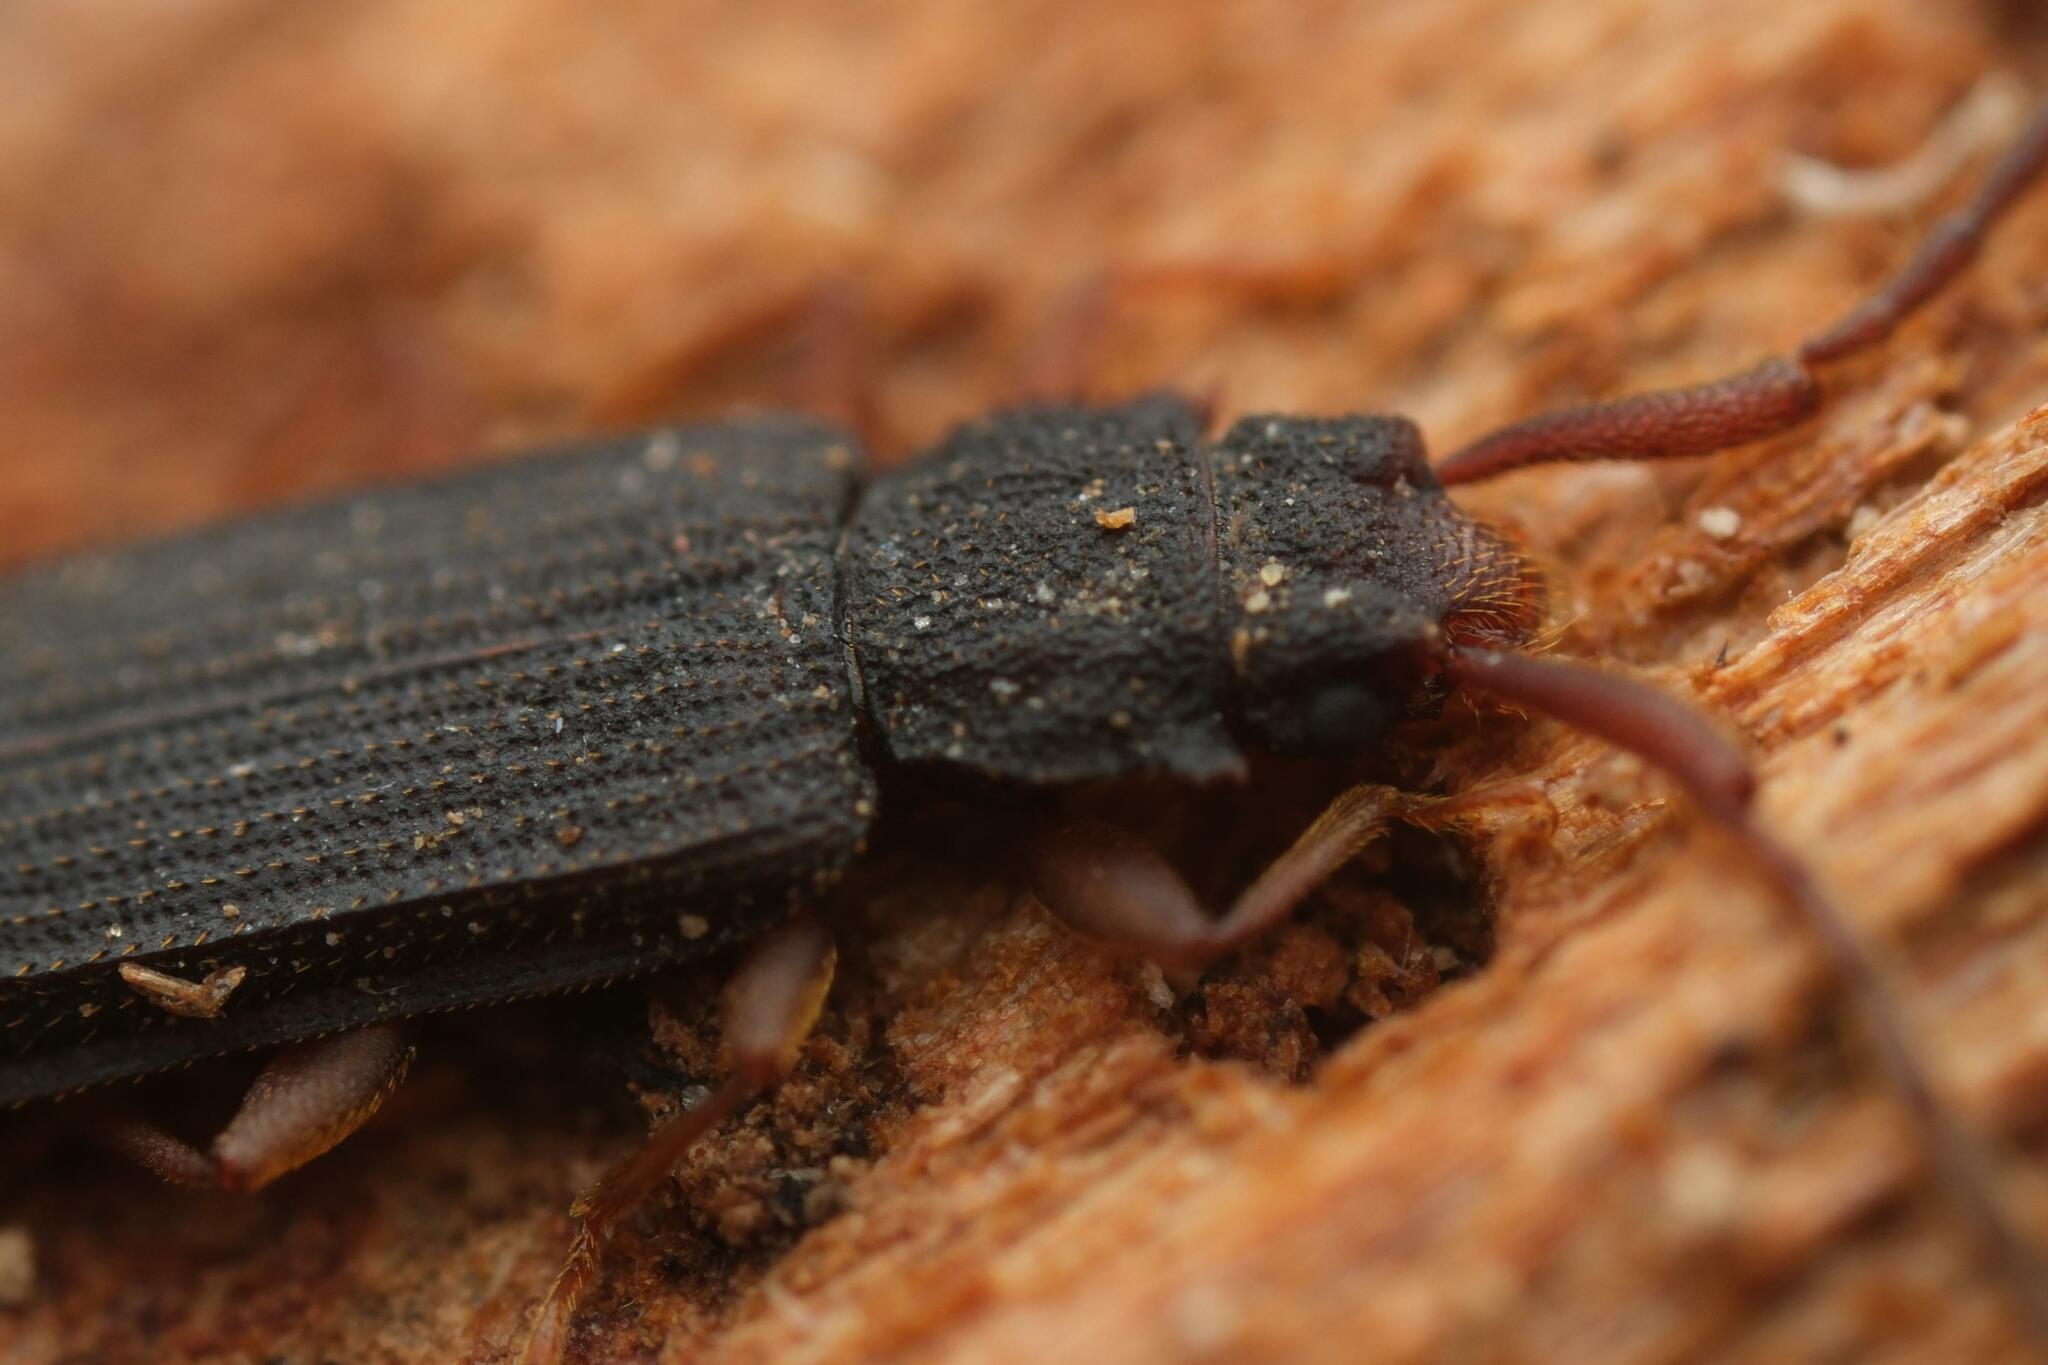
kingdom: Animalia
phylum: Arthropoda
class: Insecta
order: Coleoptera
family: Silvanidae
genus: Uleiota
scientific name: Uleiota planatus
